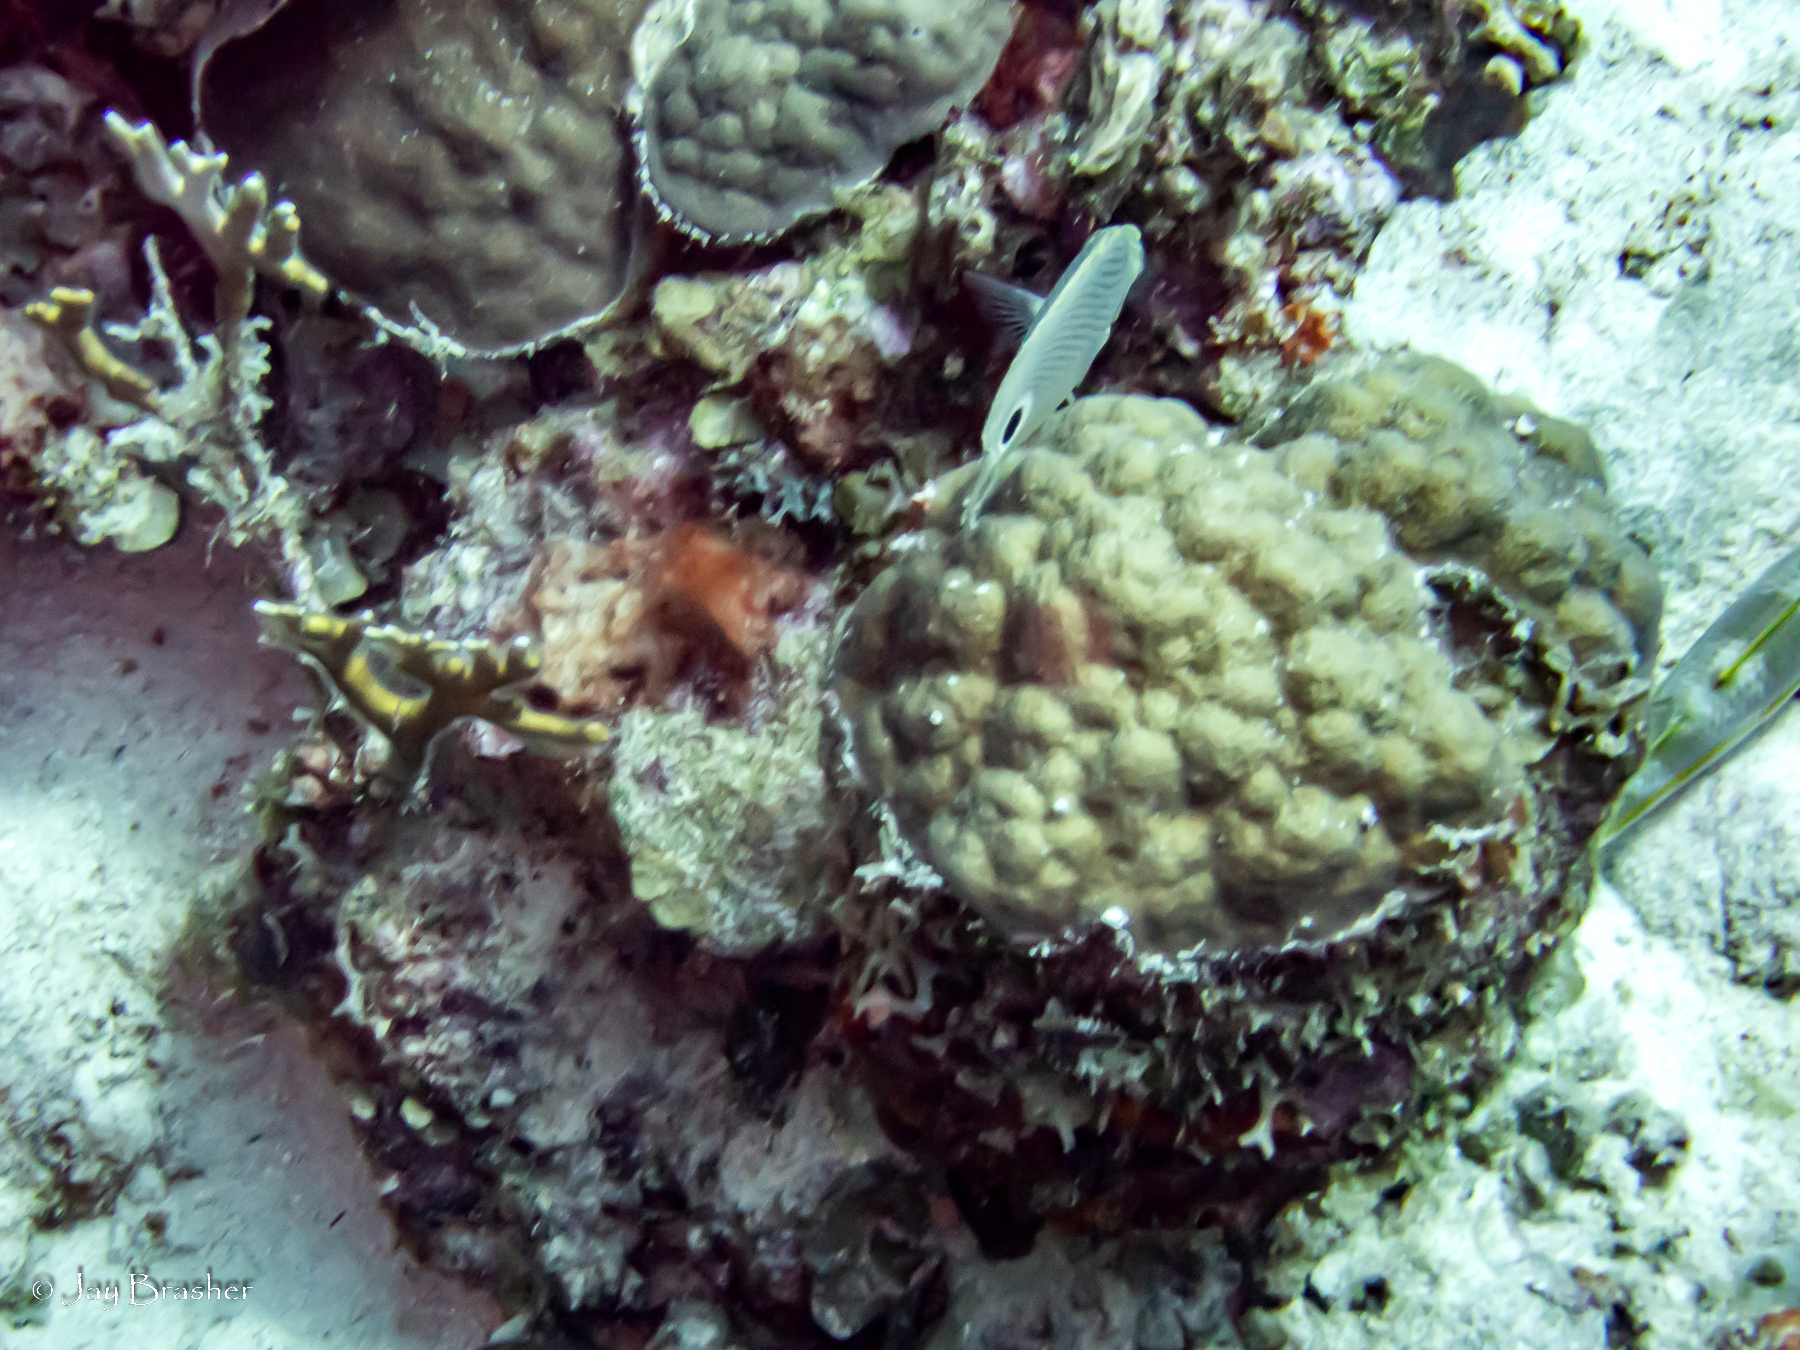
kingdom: Animalia
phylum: Chordata
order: Perciformes
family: Chaetodontidae
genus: Chaetodon
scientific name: Chaetodon capistratus
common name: Kete
